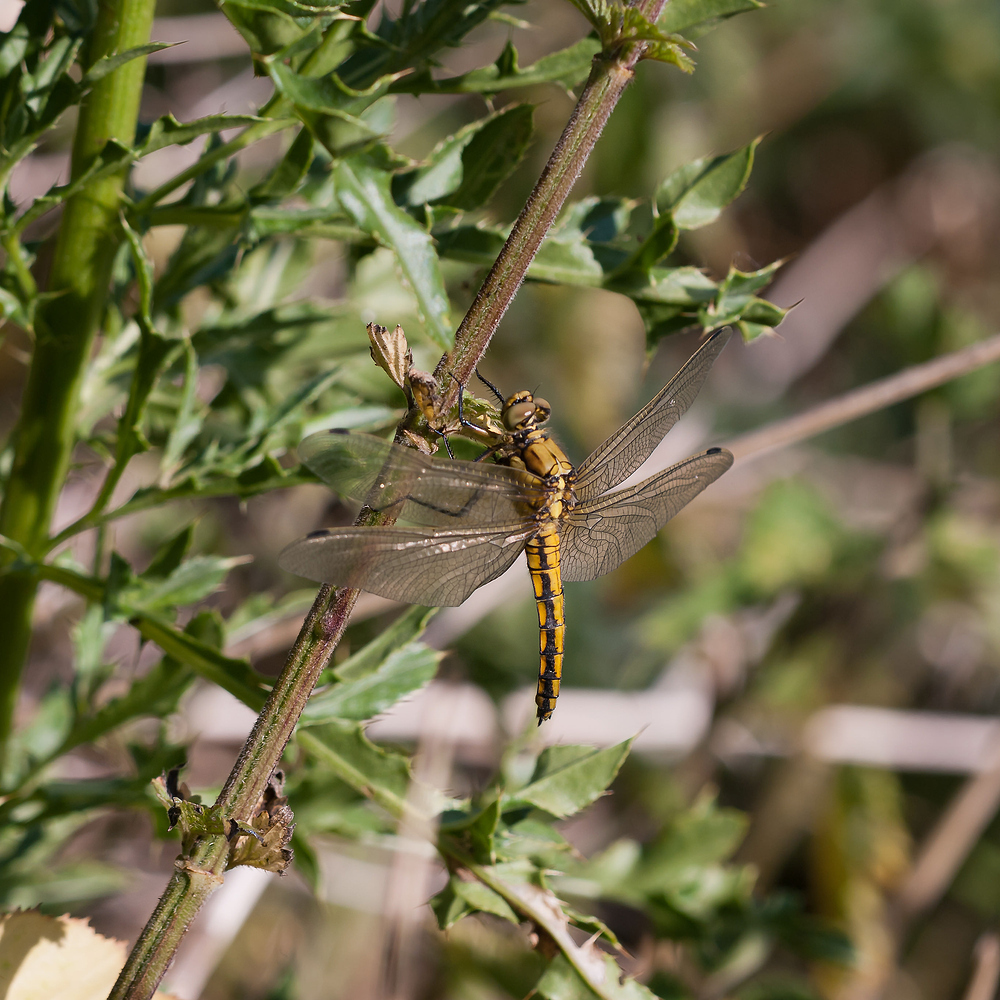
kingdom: Animalia
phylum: Arthropoda
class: Insecta
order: Odonata
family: Libellulidae
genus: Orthetrum
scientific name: Orthetrum cancellatum
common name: Black-tailed skimmer
